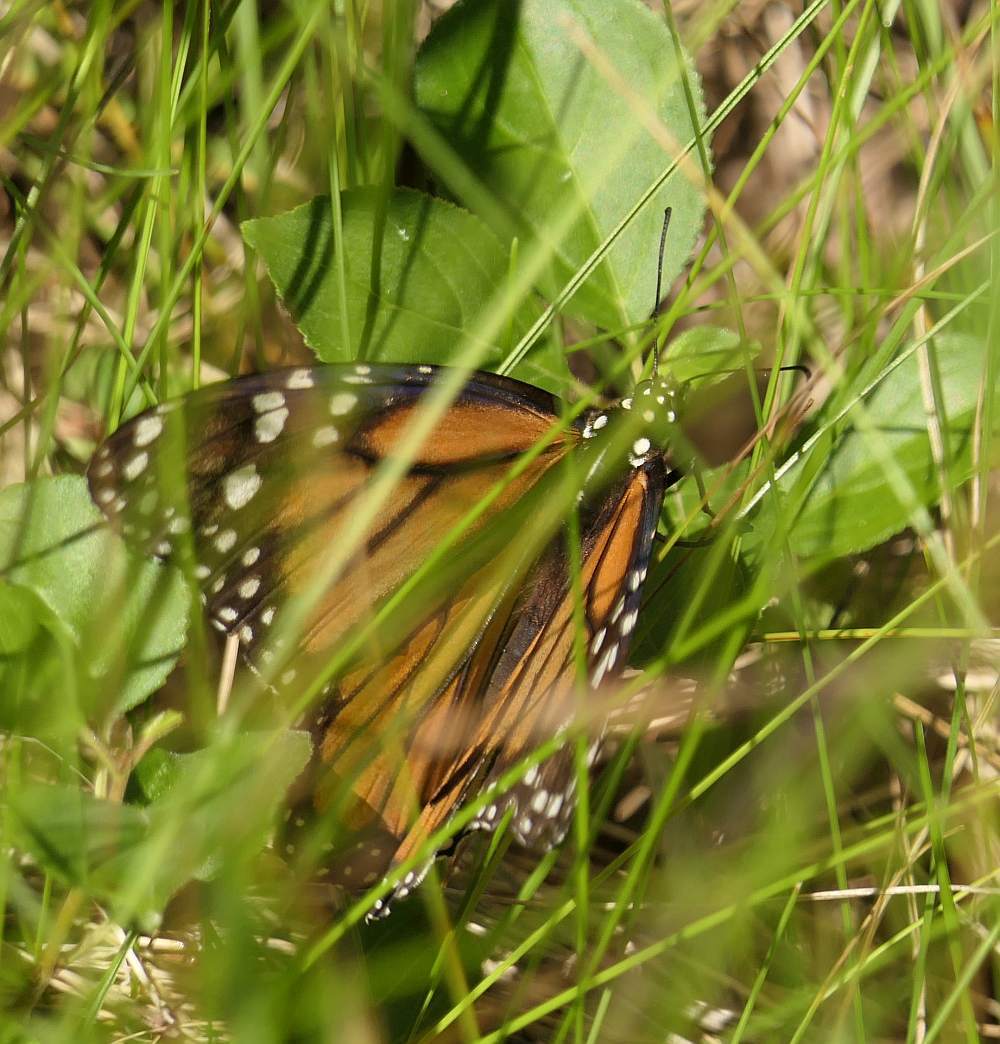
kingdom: Animalia
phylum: Arthropoda
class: Insecta
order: Lepidoptera
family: Nymphalidae
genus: Danaus
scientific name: Danaus plexippus
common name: Monarch
